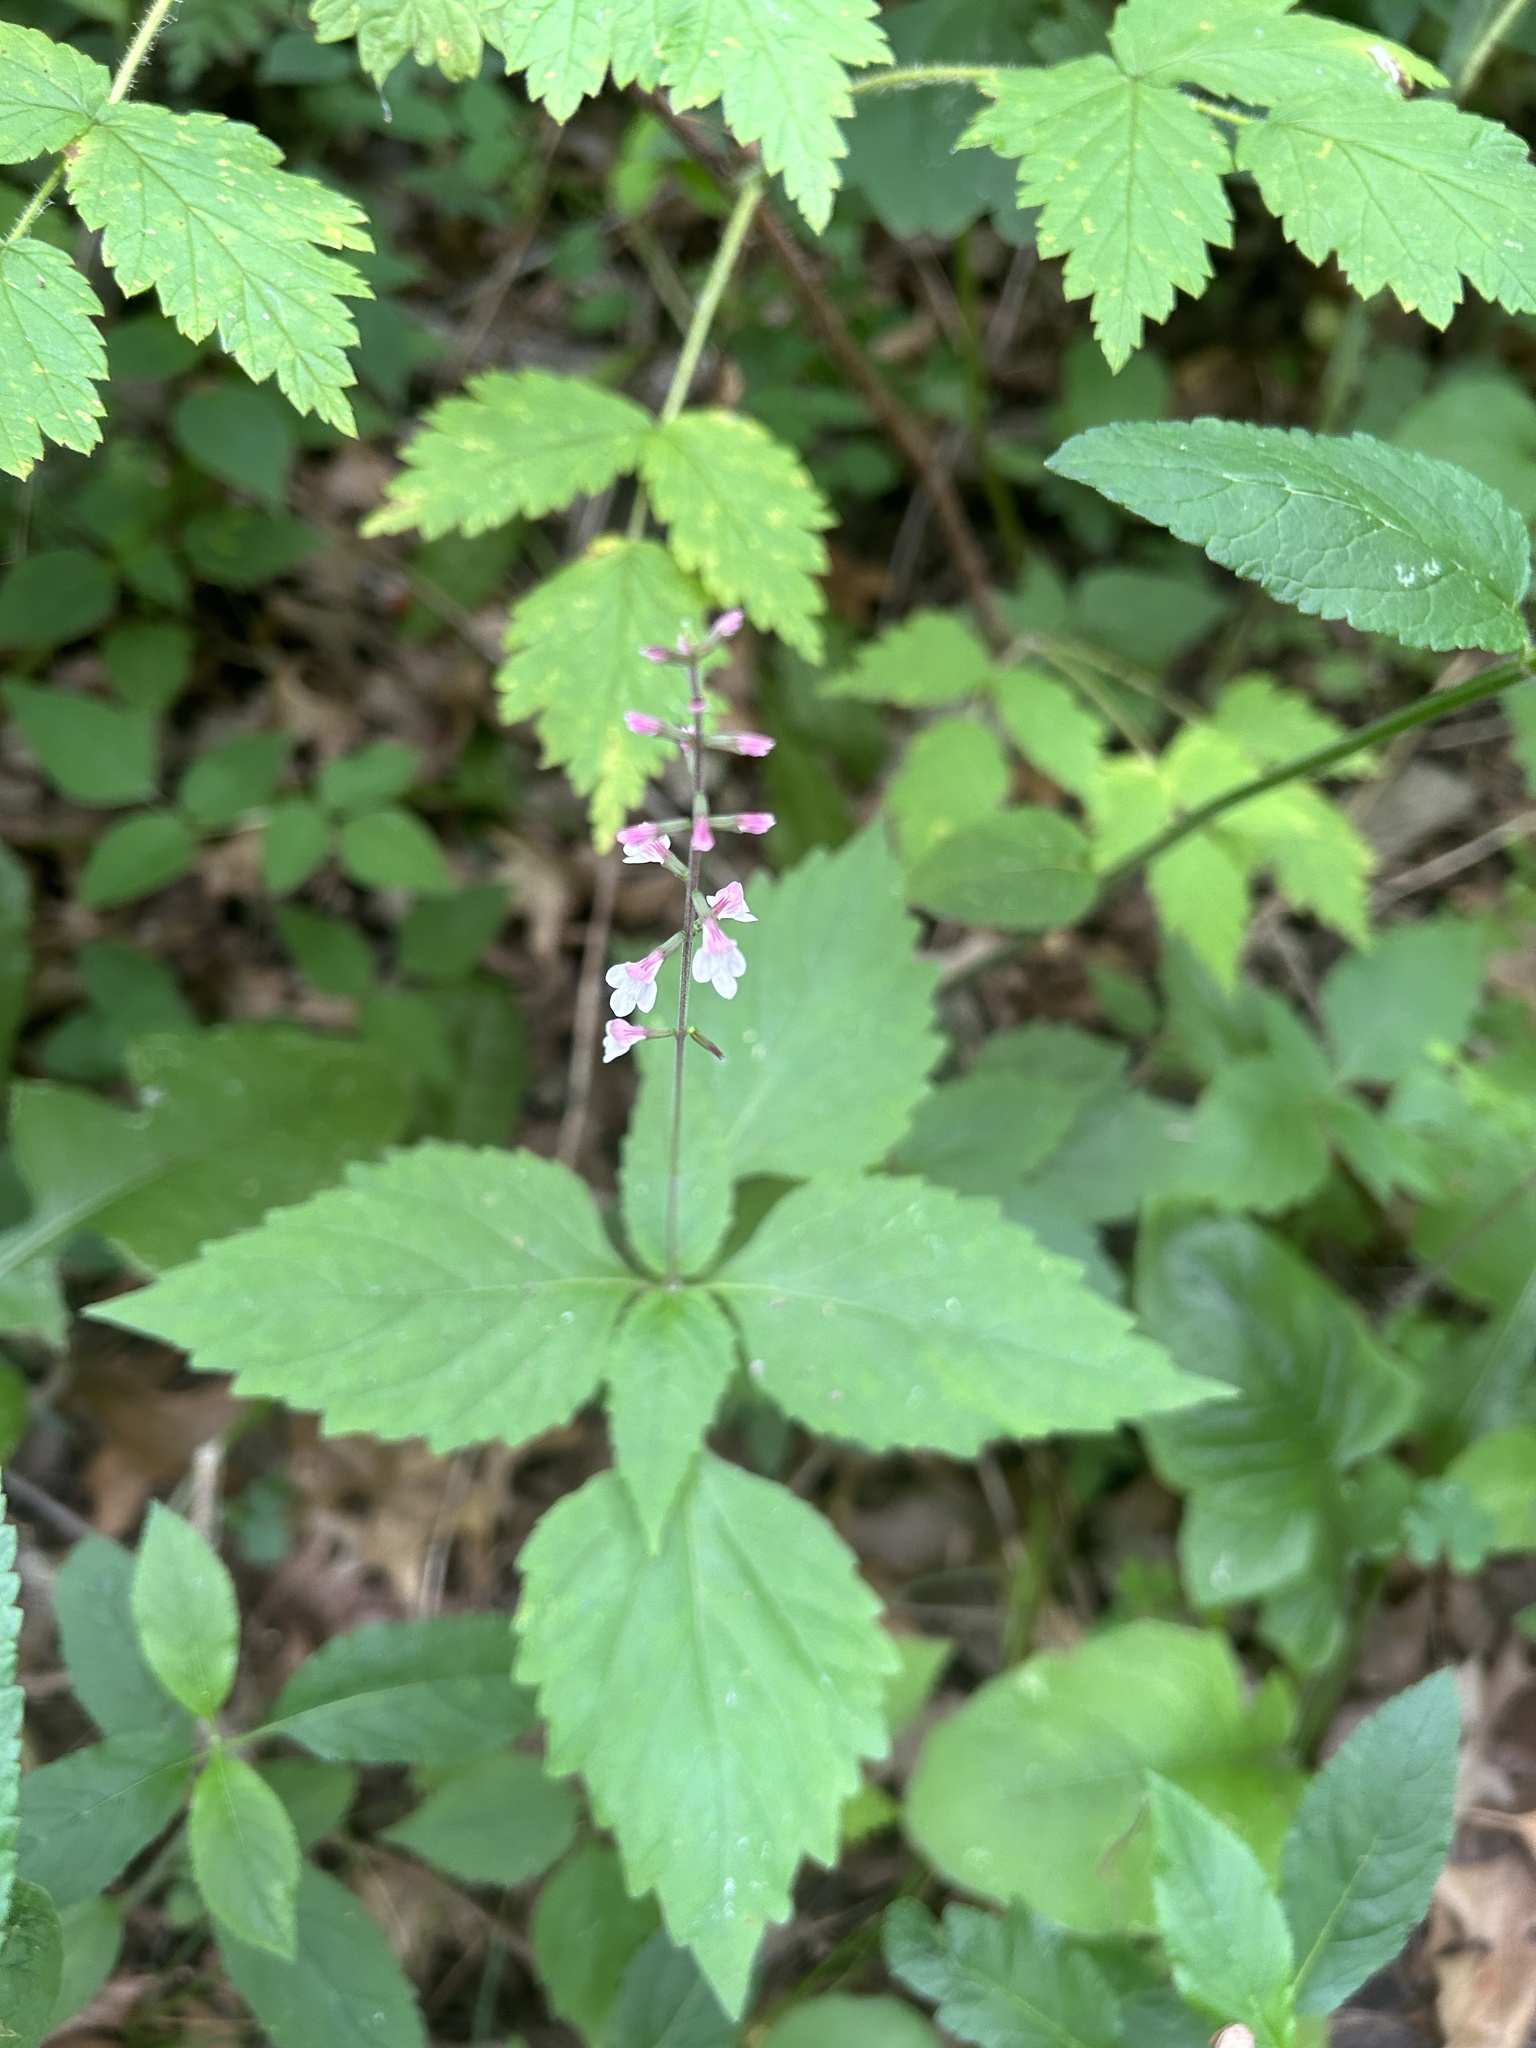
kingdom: Plantae
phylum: Tracheophyta
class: Magnoliopsida
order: Lamiales
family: Phrymaceae
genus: Phryma
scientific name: Phryma leptostachya
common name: American lopseed
